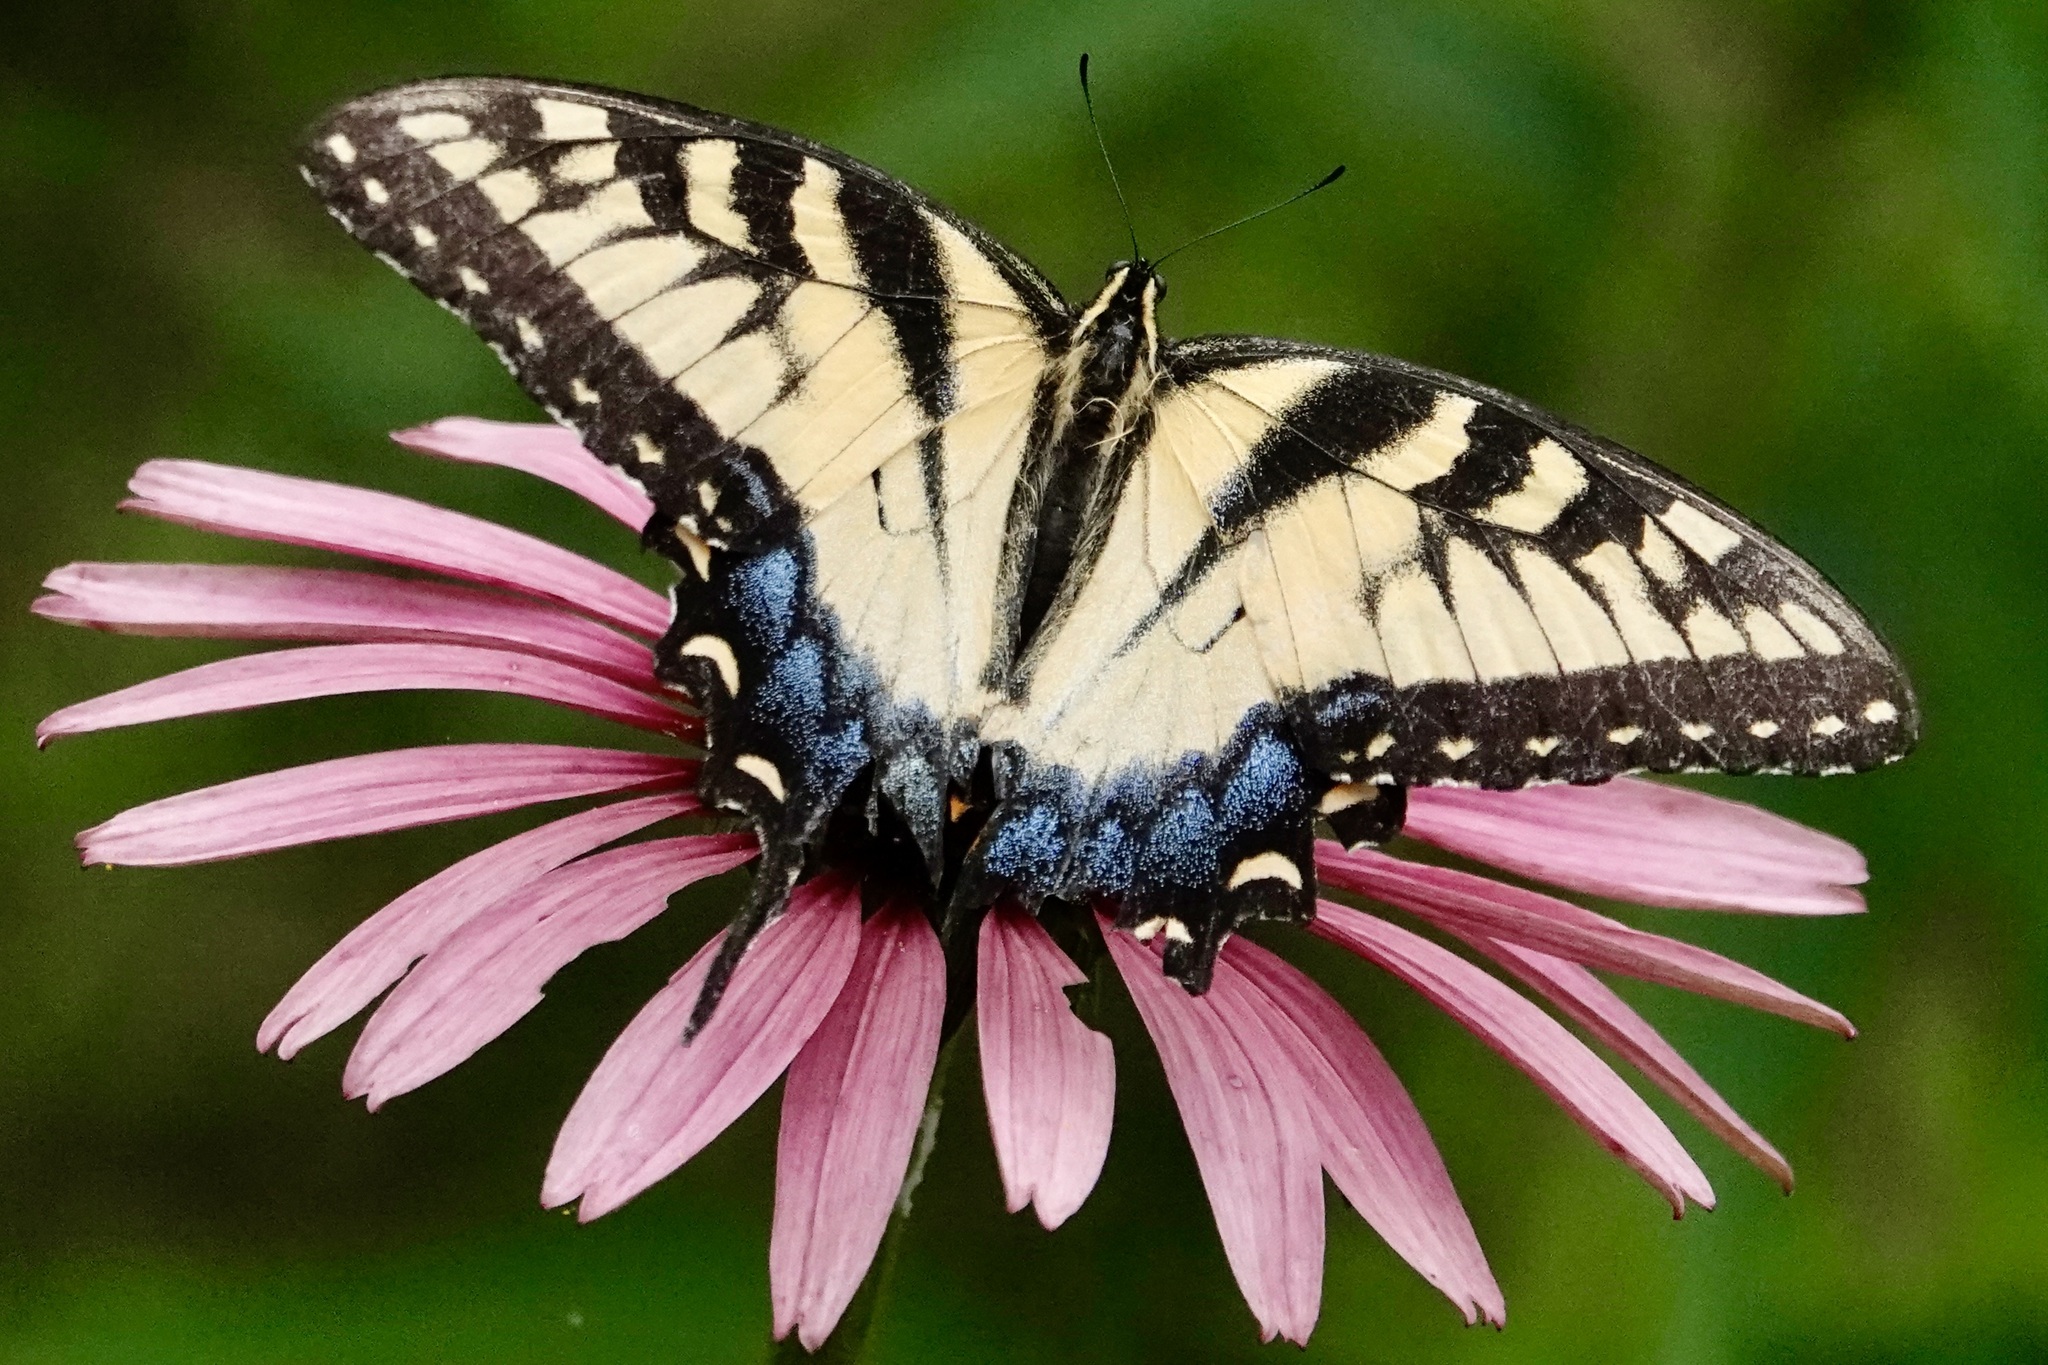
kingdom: Animalia
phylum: Arthropoda
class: Insecta
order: Lepidoptera
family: Papilionidae
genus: Papilio
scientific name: Papilio glaucus
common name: Tiger swallowtail
